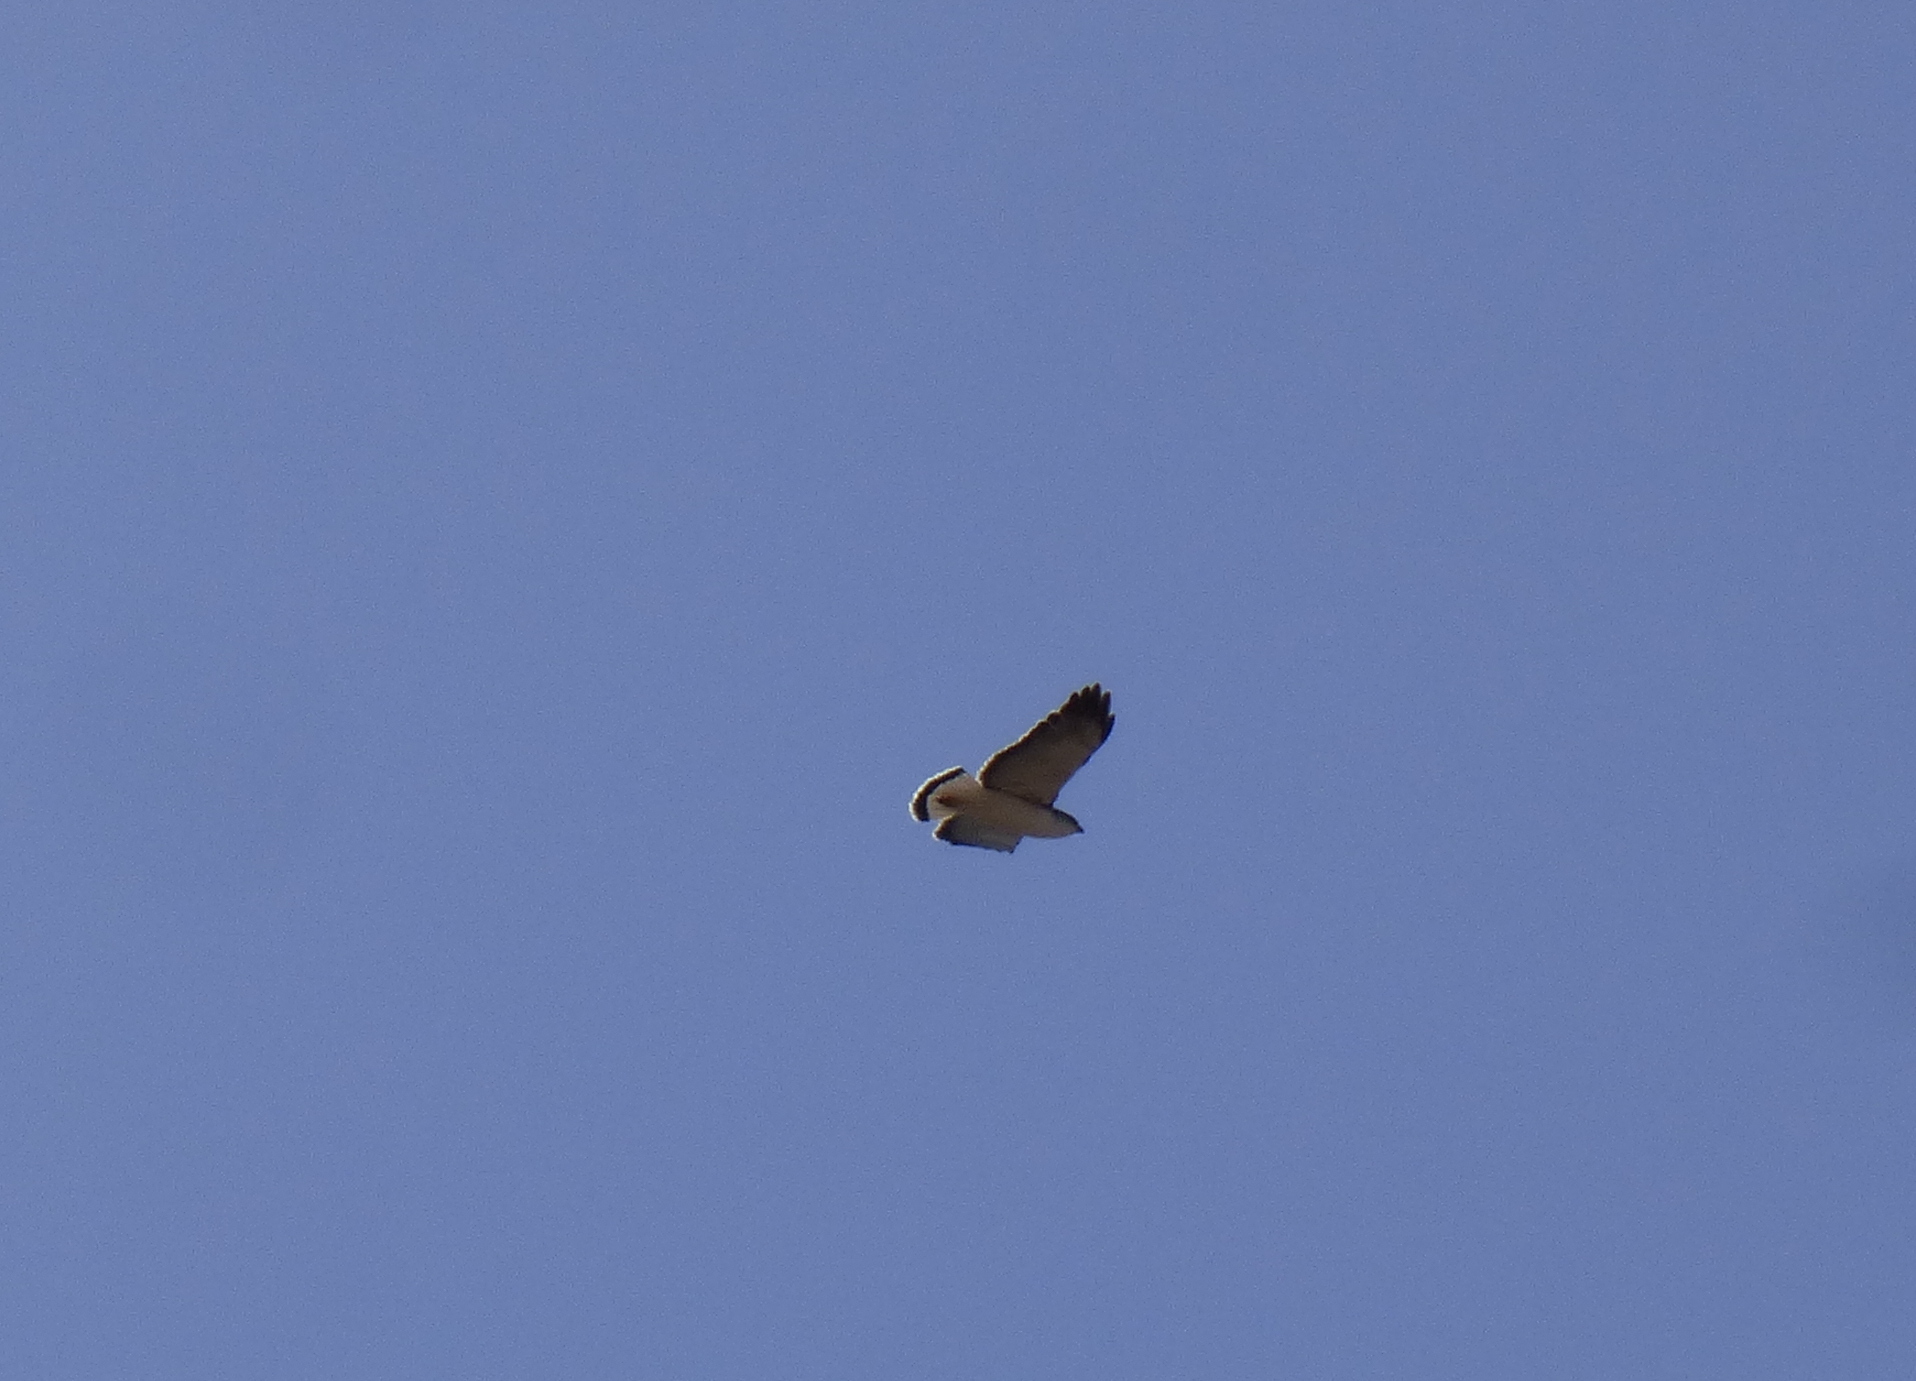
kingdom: Animalia
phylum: Chordata
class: Aves
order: Accipitriformes
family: Accipitridae
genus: Buteo
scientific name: Buteo polyosoma
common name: Variable hawk
